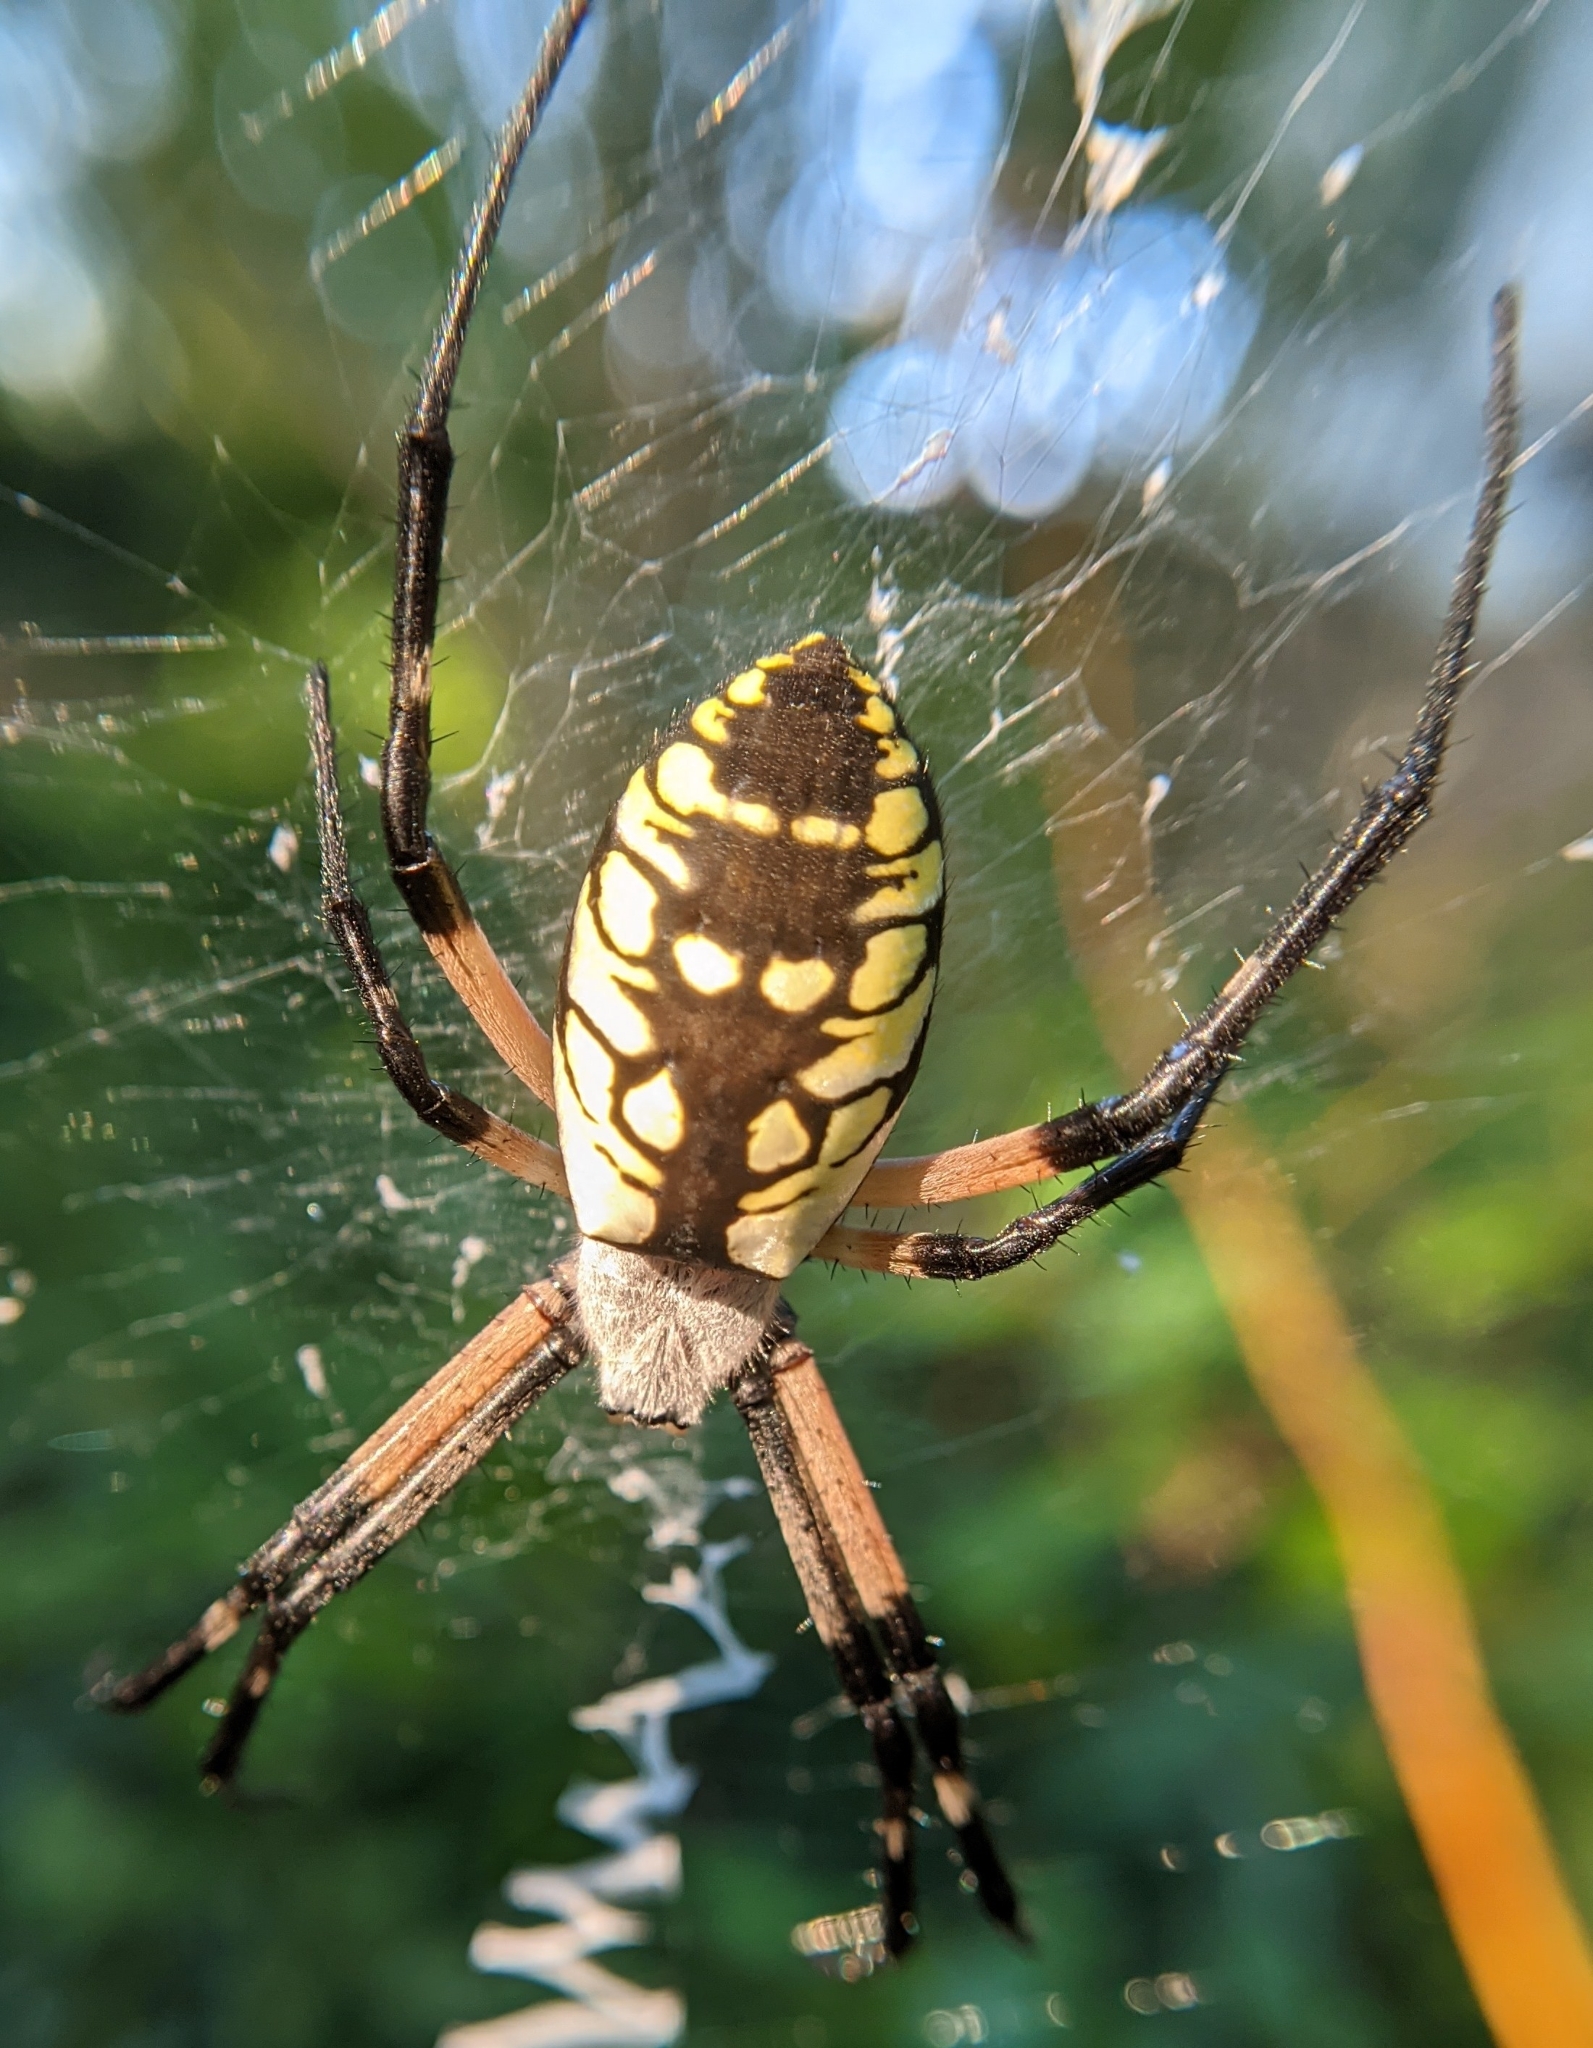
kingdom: Animalia
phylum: Arthropoda
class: Arachnida
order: Araneae
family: Araneidae
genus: Argiope
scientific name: Argiope aurantia
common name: Orb weavers
